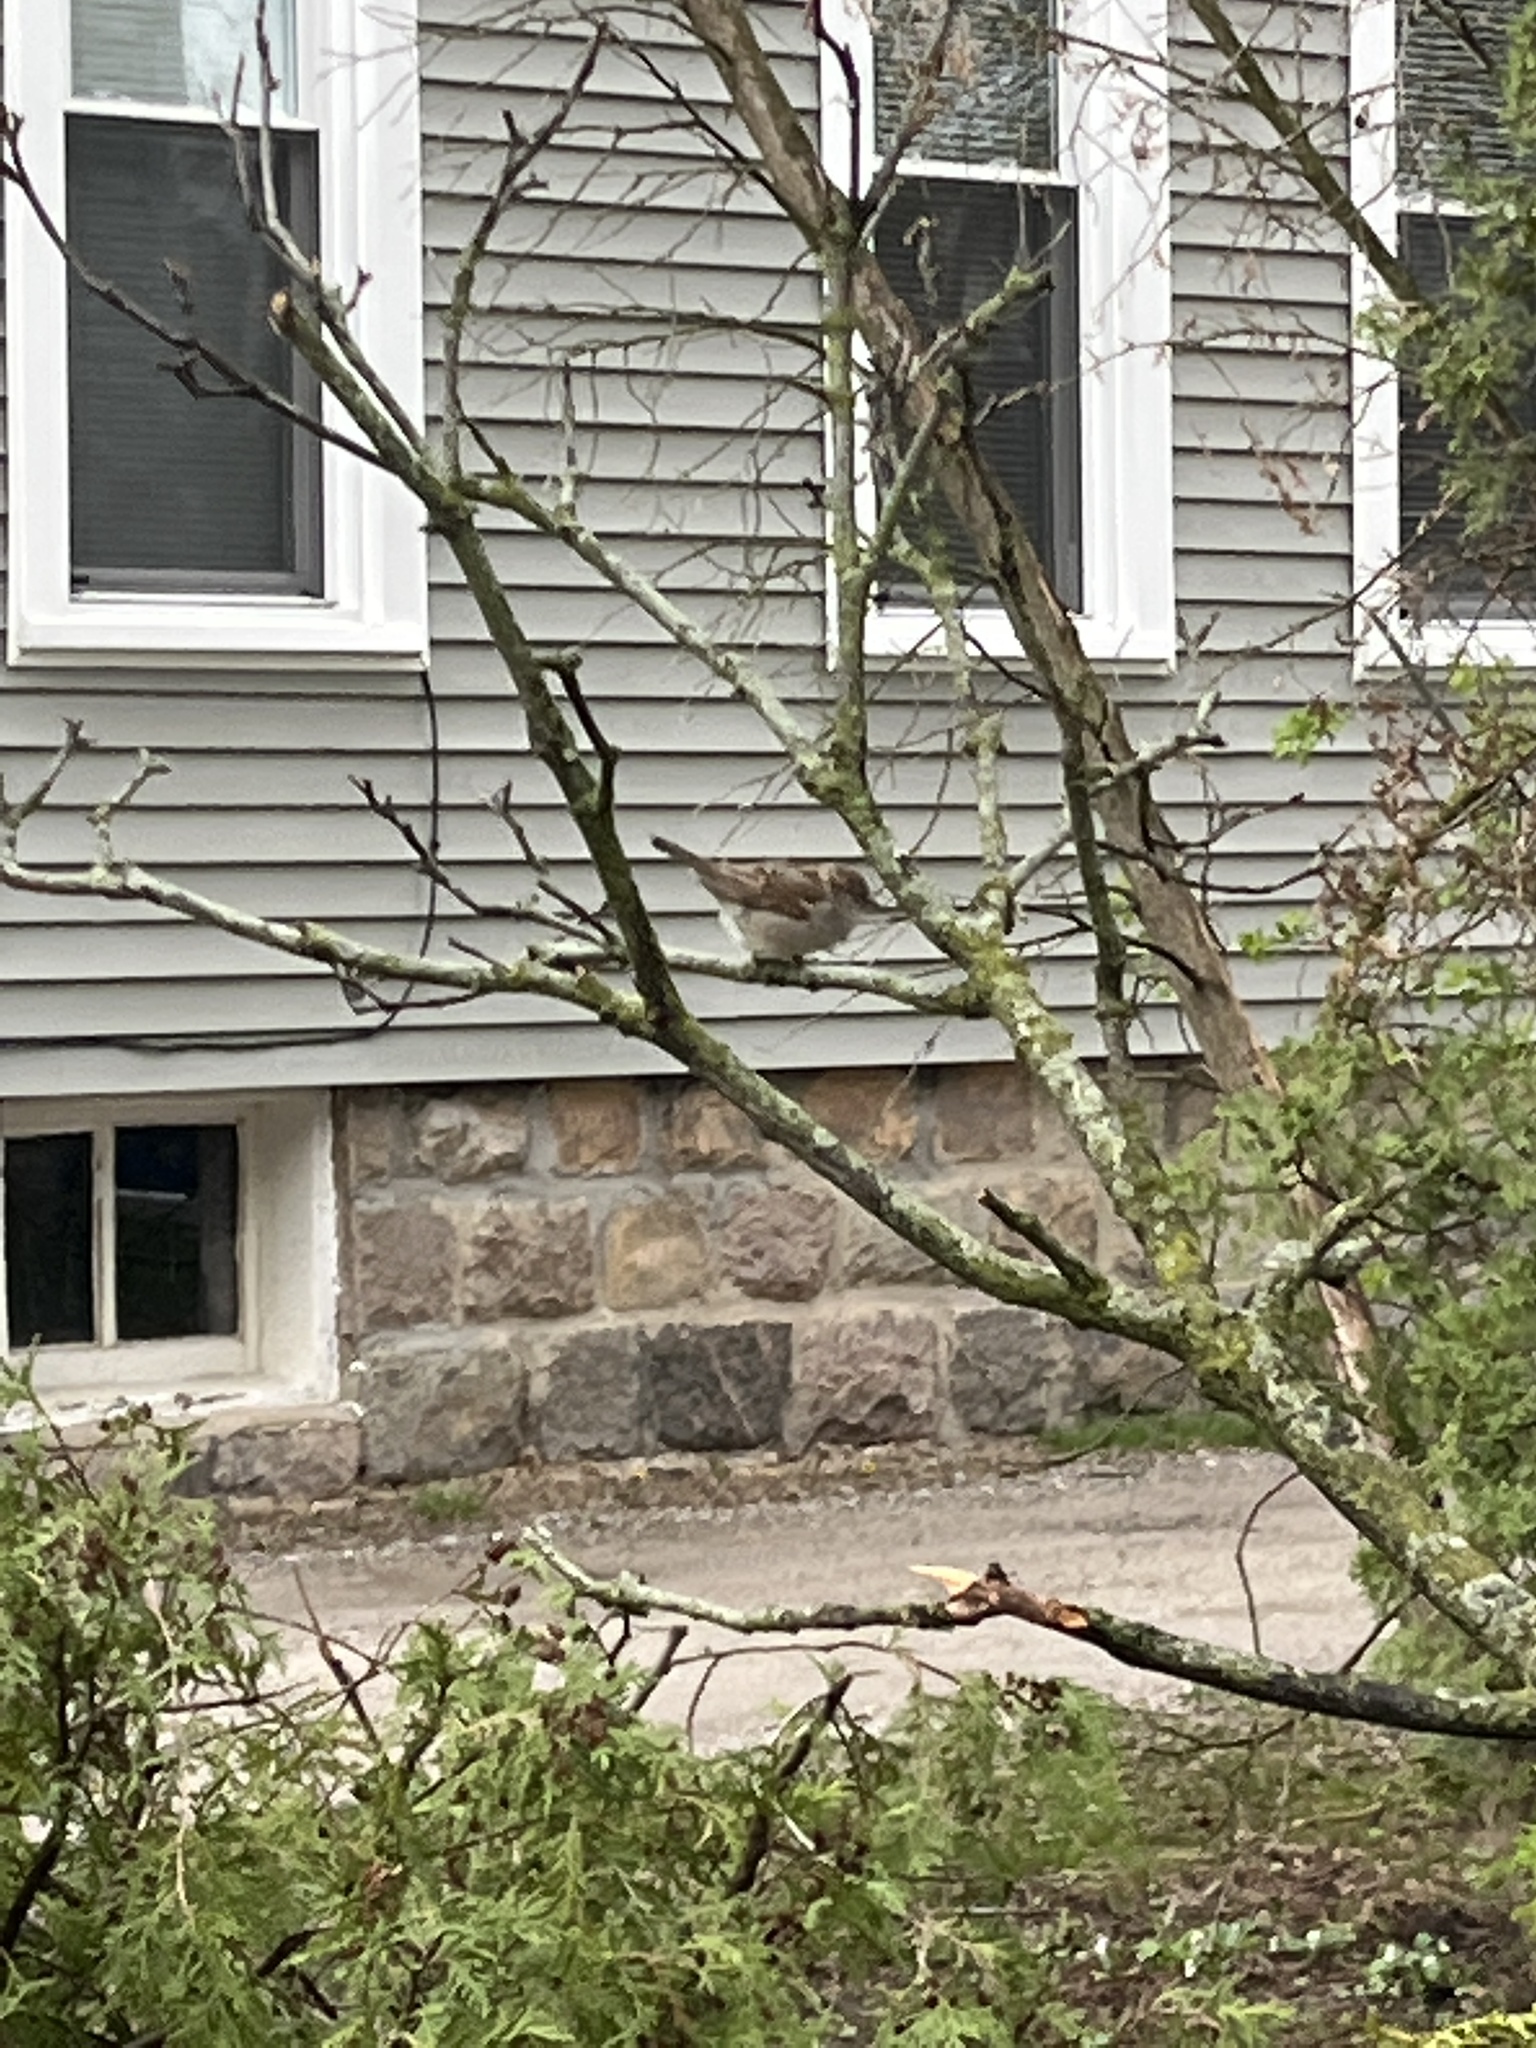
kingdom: Animalia
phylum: Chordata
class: Aves
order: Passeriformes
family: Passeridae
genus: Passer
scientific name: Passer domesticus
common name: House sparrow
